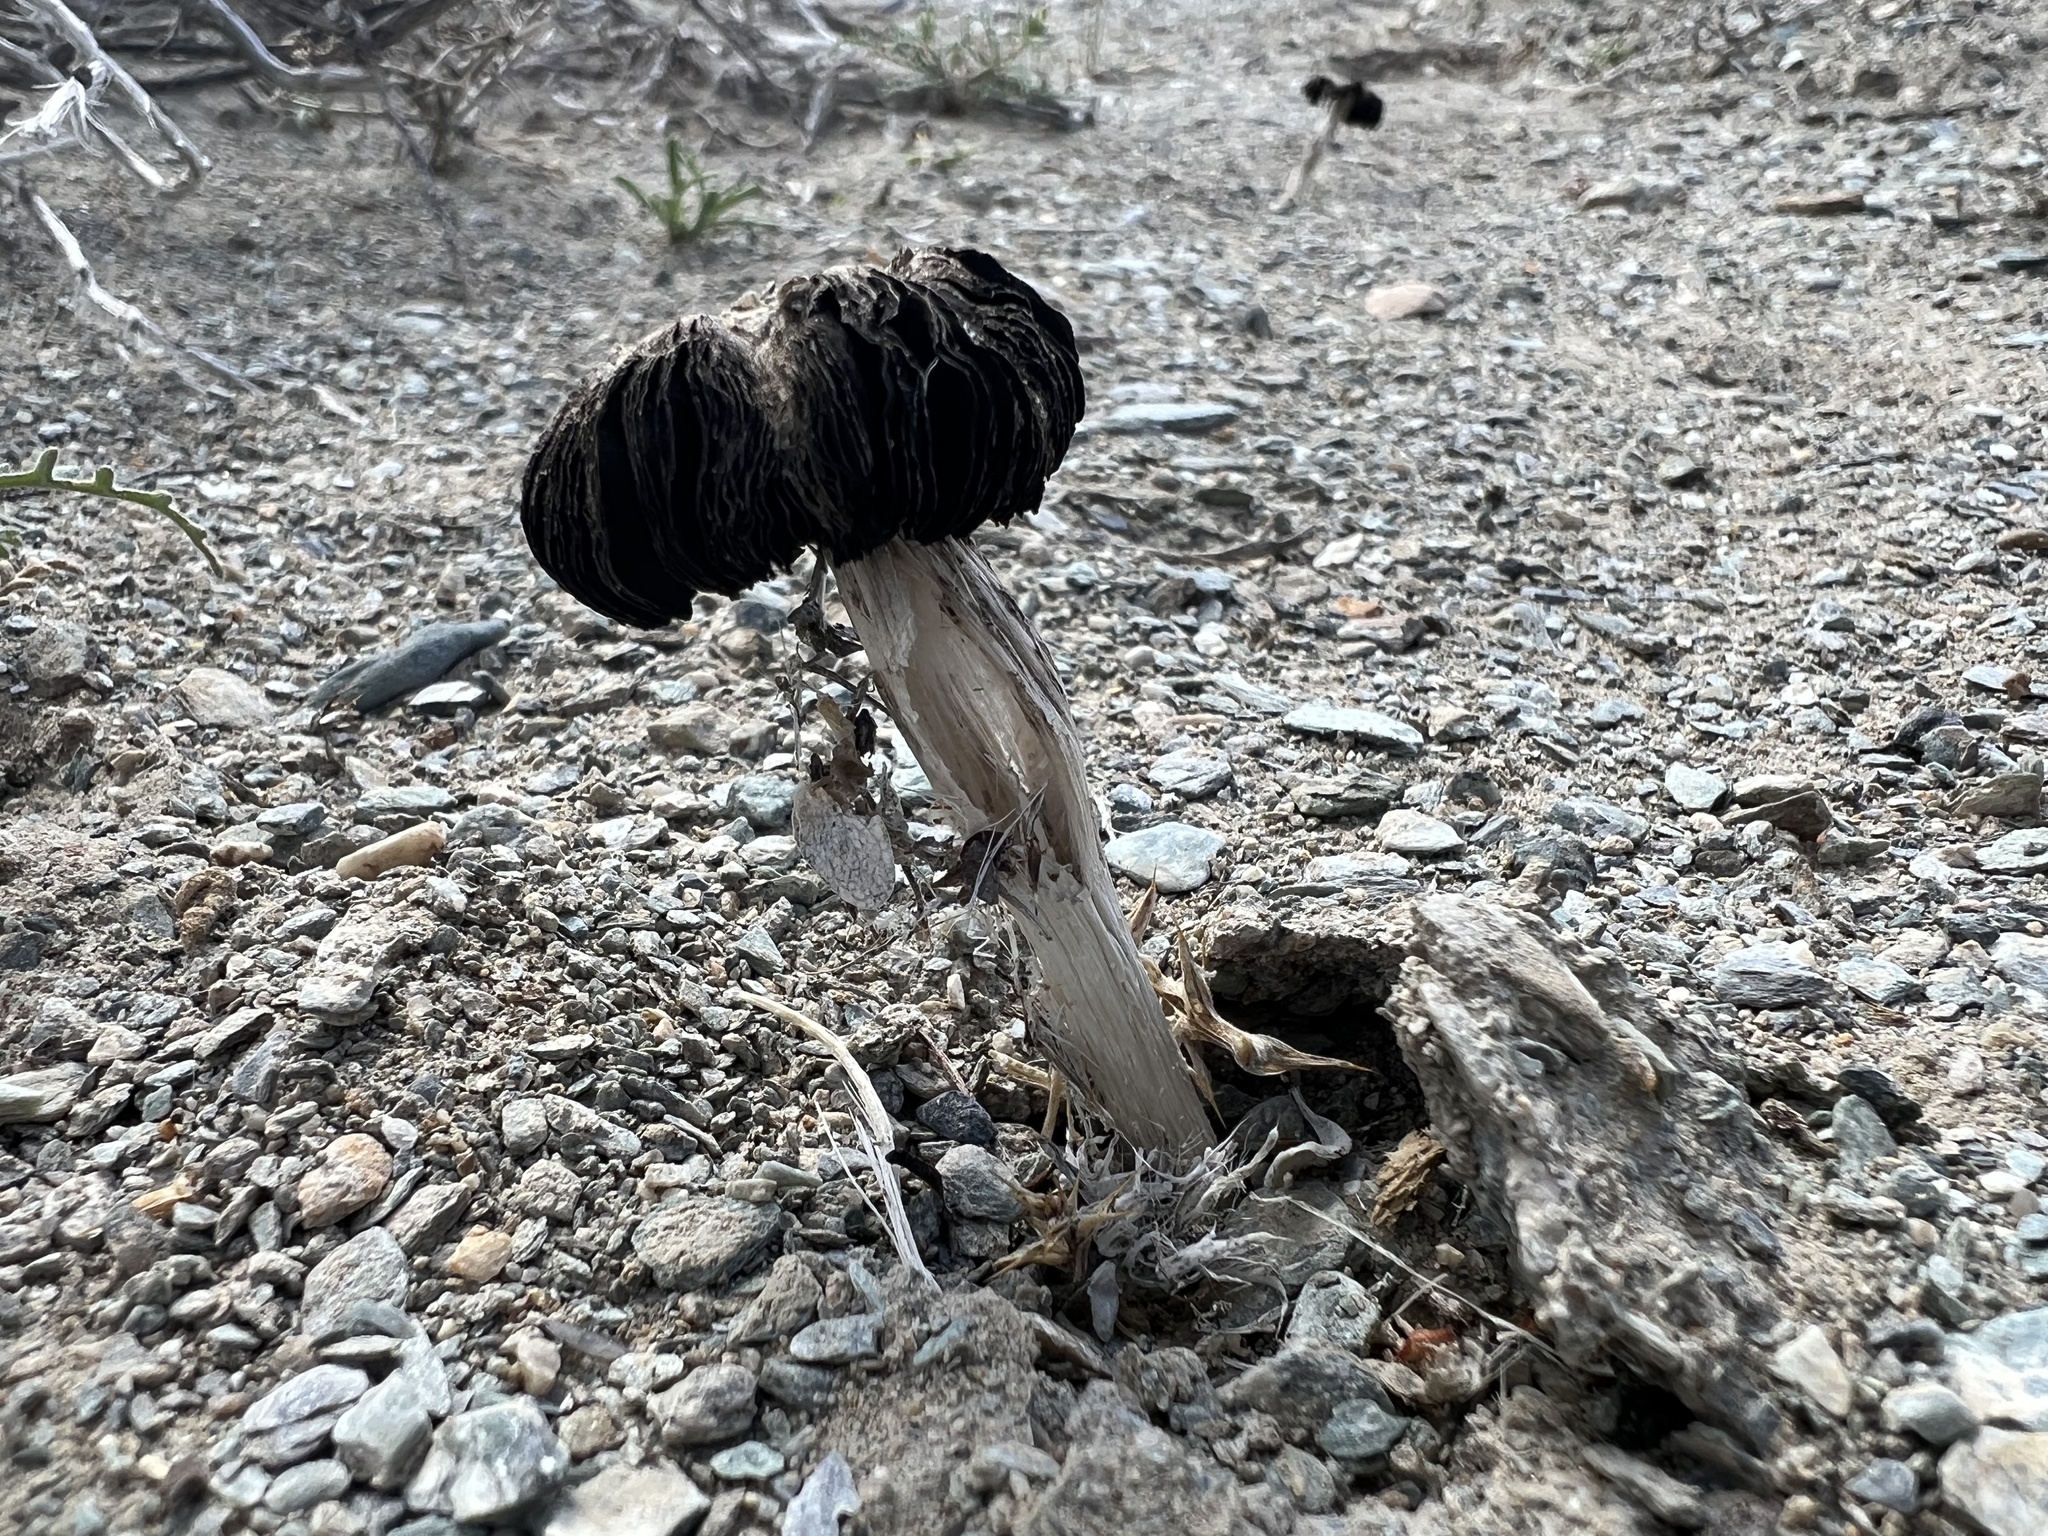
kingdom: Fungi
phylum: Basidiomycota
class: Agaricomycetes
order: Agaricales
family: Agaricaceae
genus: Montagnea
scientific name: Montagnea arenaria
